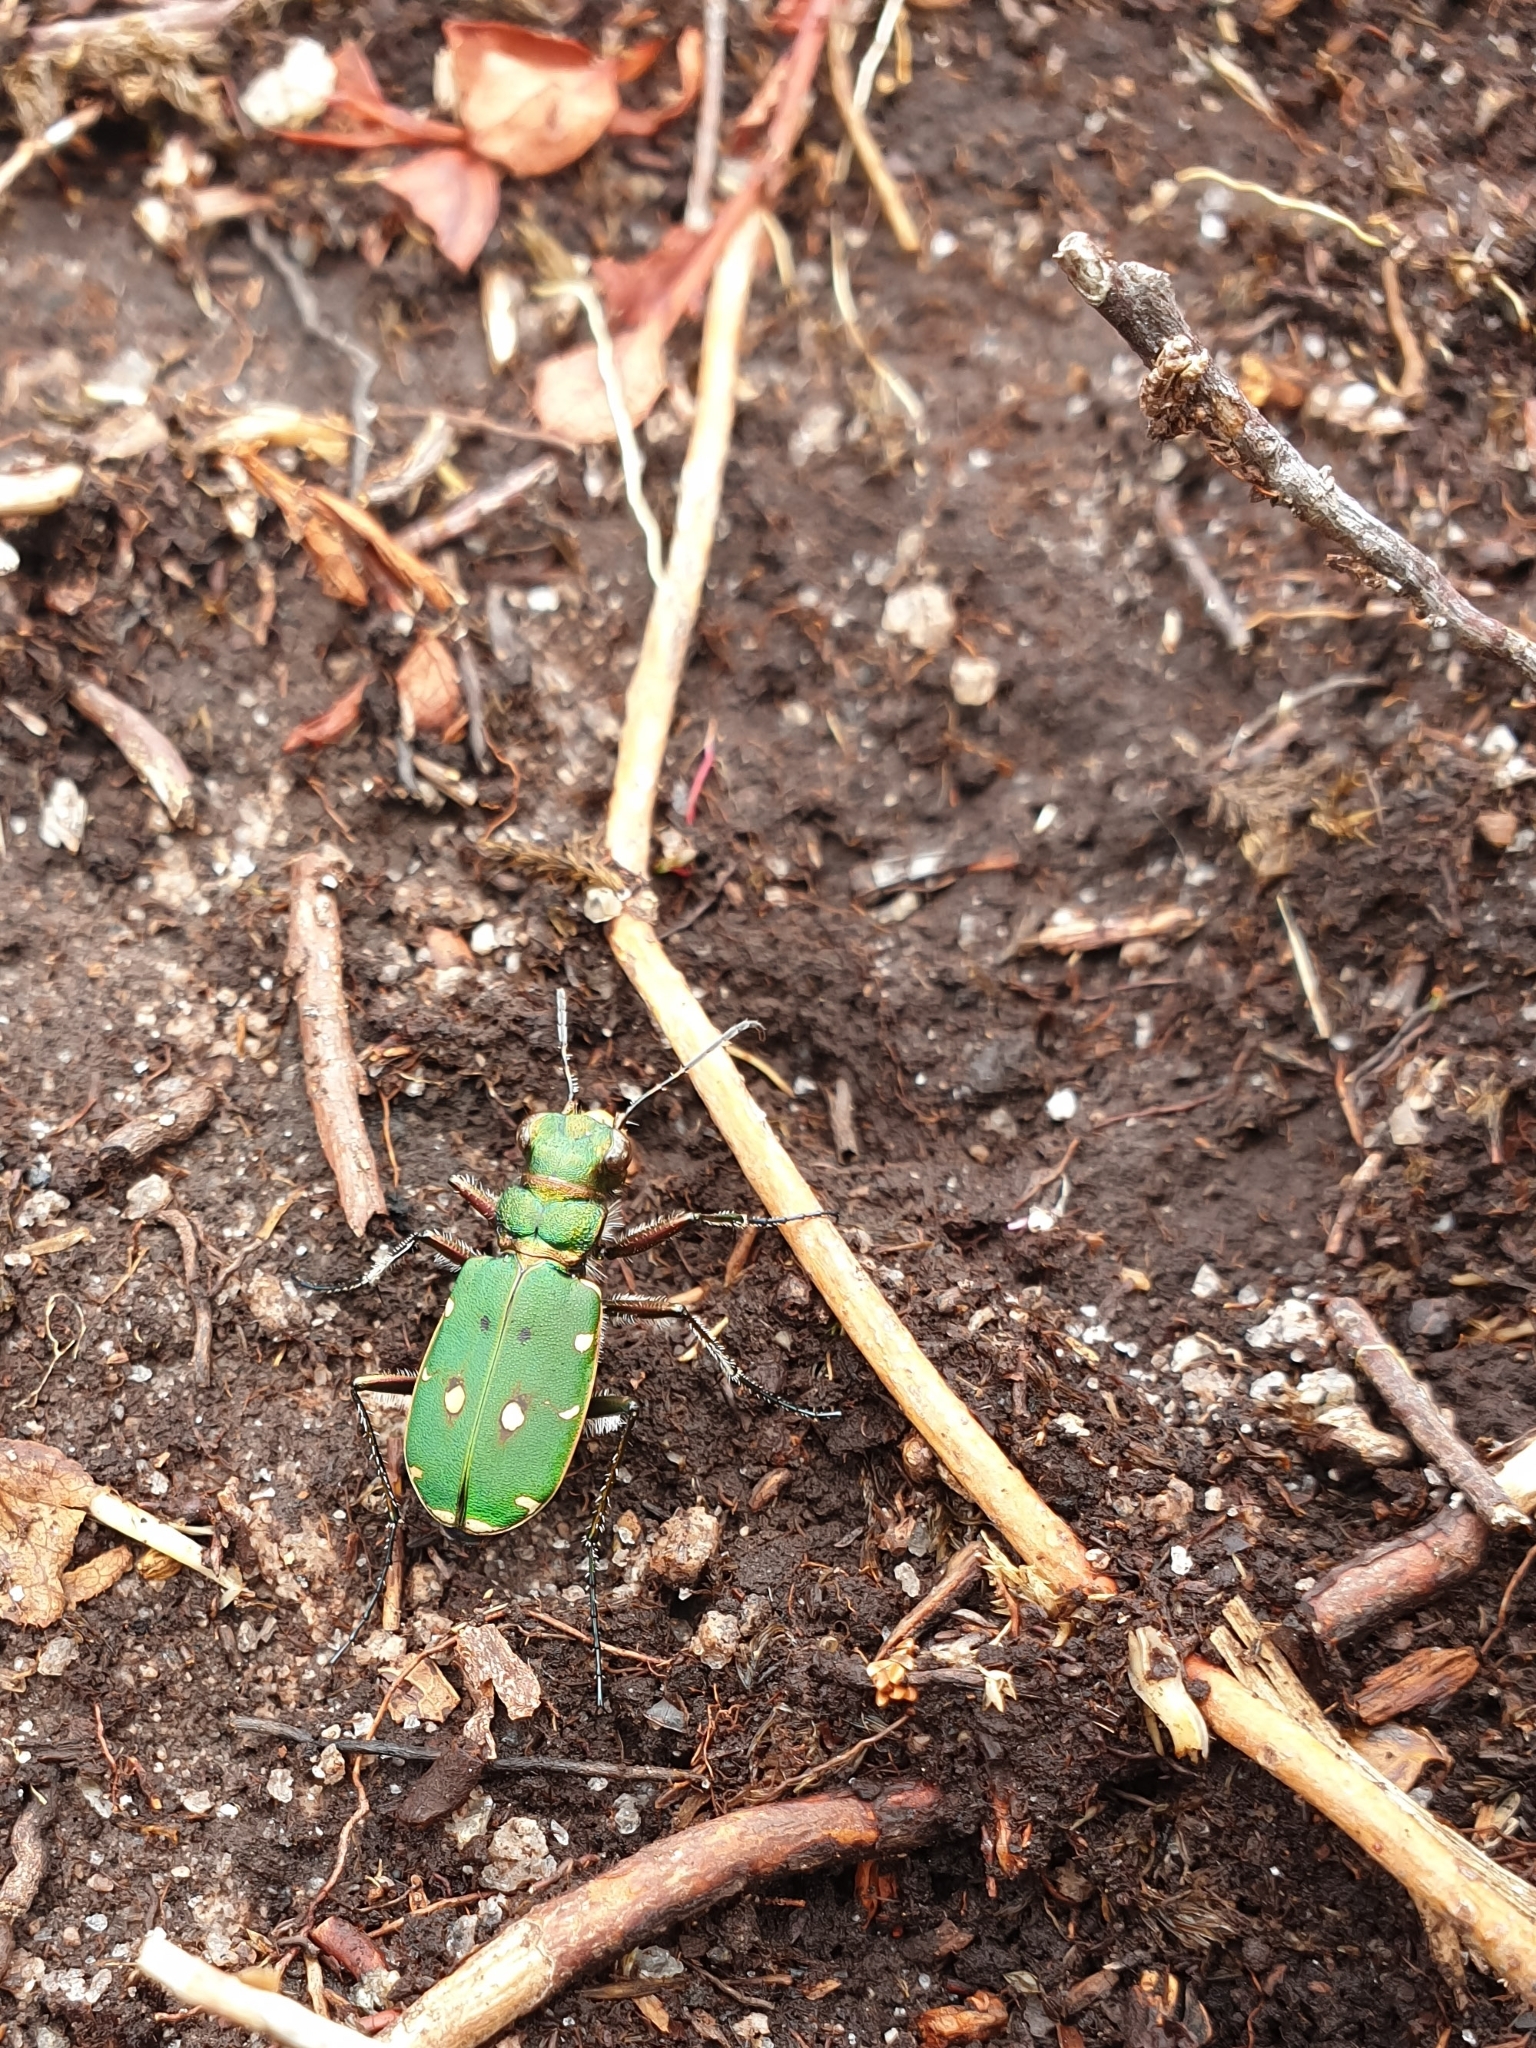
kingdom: Animalia
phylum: Arthropoda
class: Insecta
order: Coleoptera
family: Carabidae
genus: Cicindela
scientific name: Cicindela campestris
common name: Common tiger beetle
